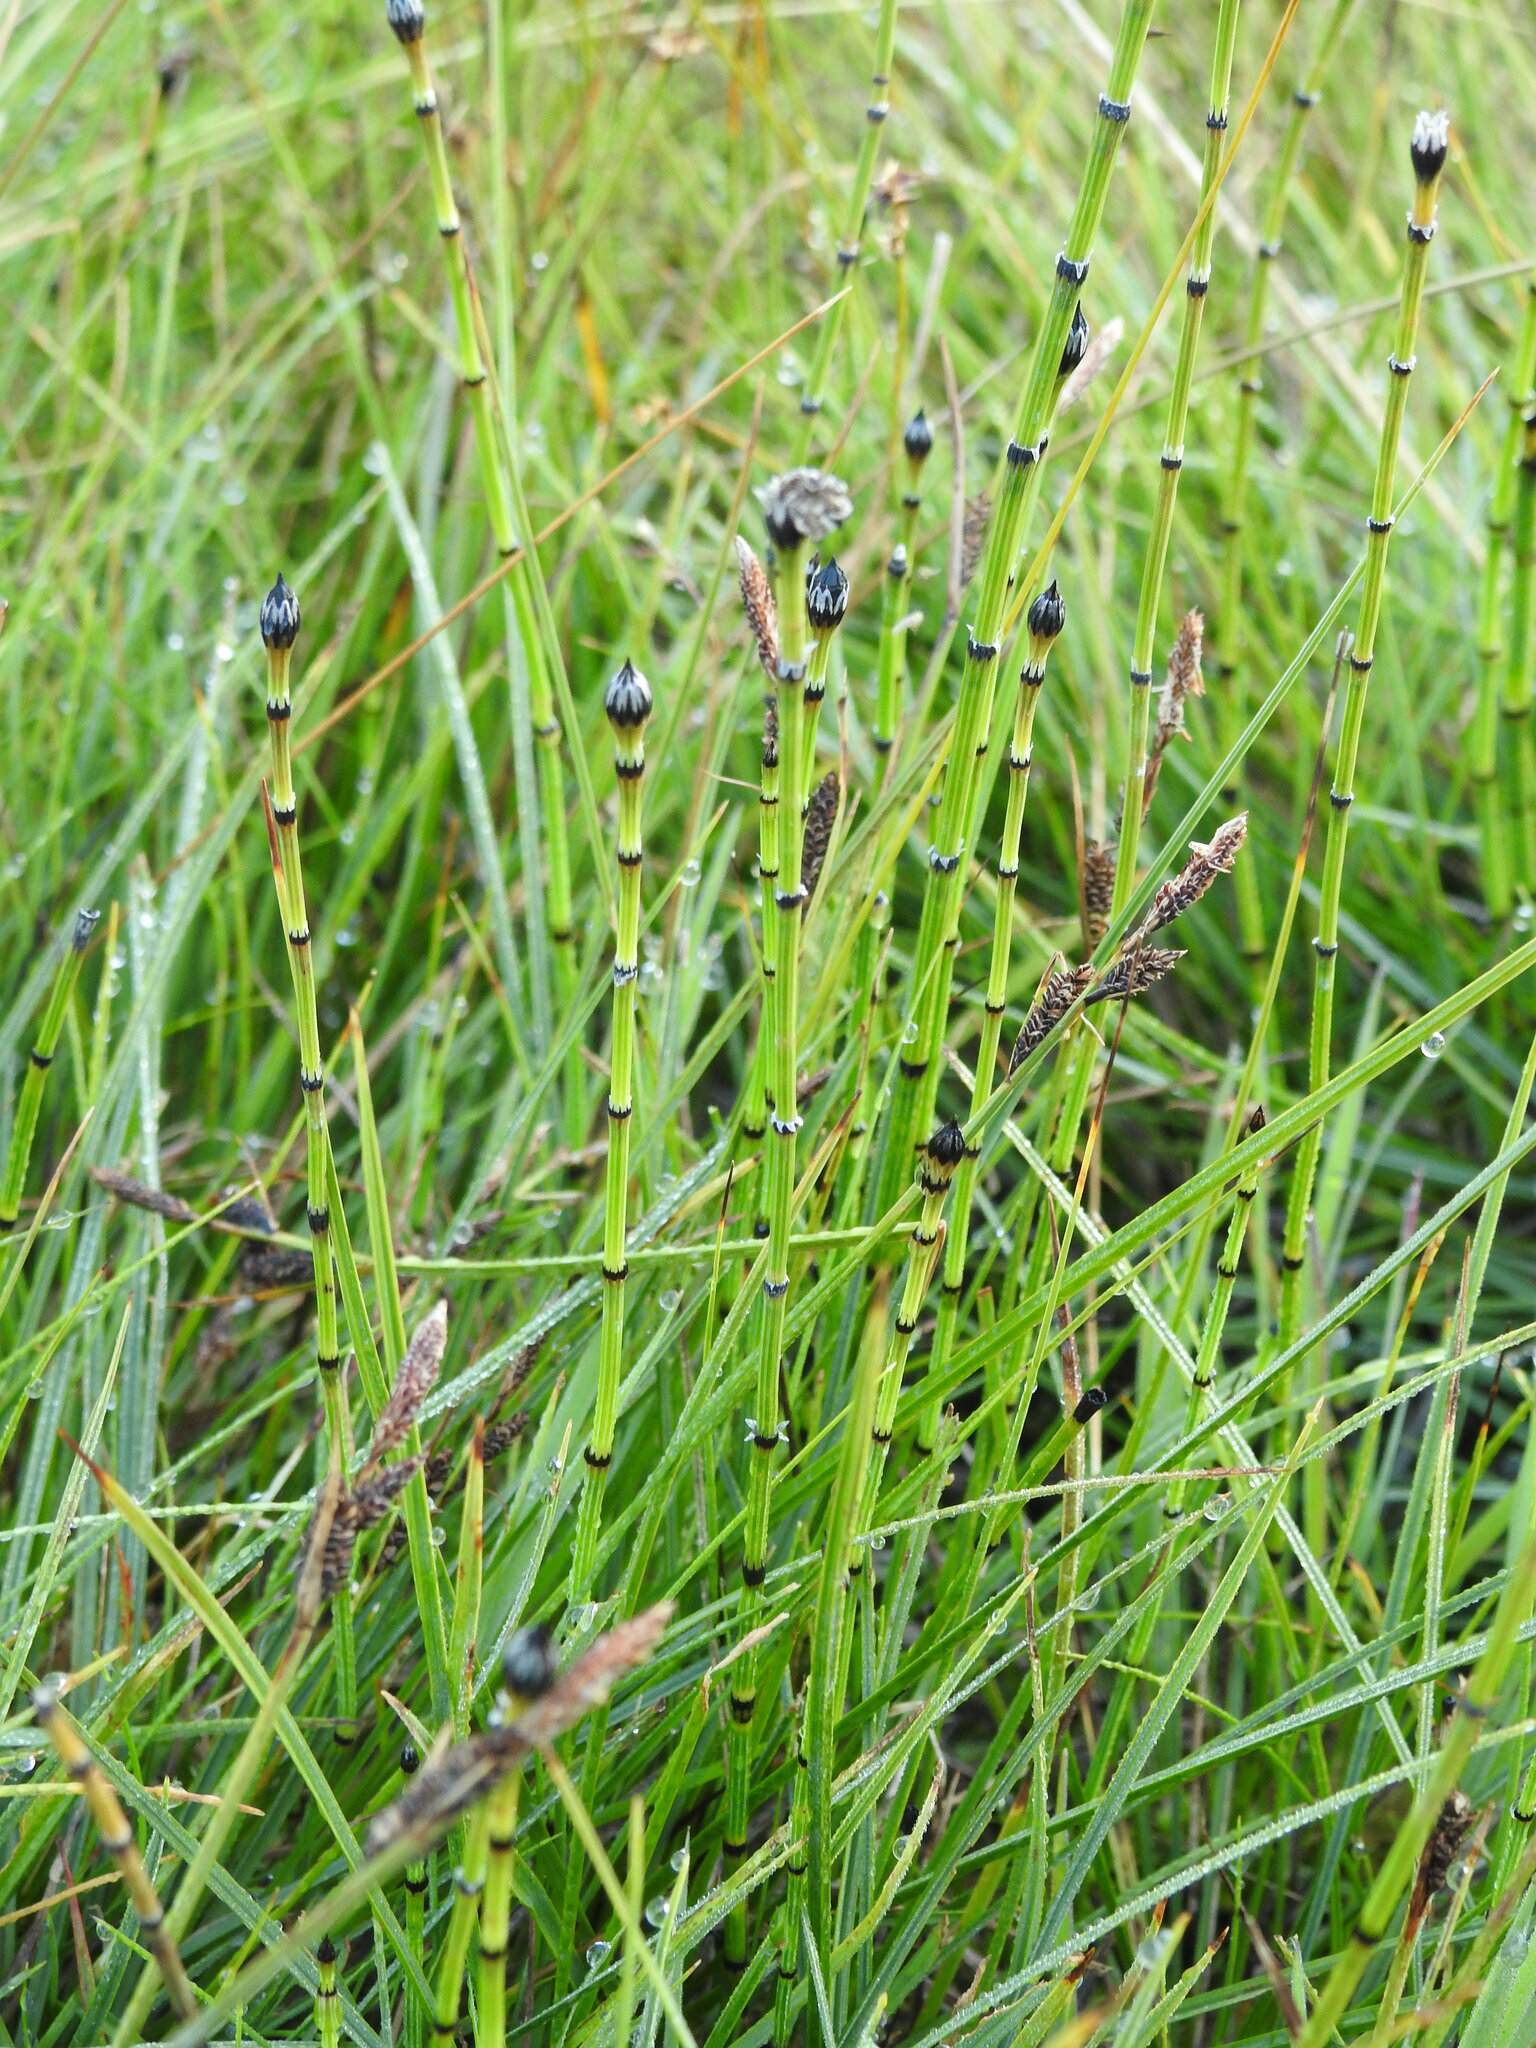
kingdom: Plantae
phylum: Tracheophyta
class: Polypodiopsida
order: Equisetales
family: Equisetaceae
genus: Equisetum
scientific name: Equisetum variegatum
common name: Variegated horsetail
